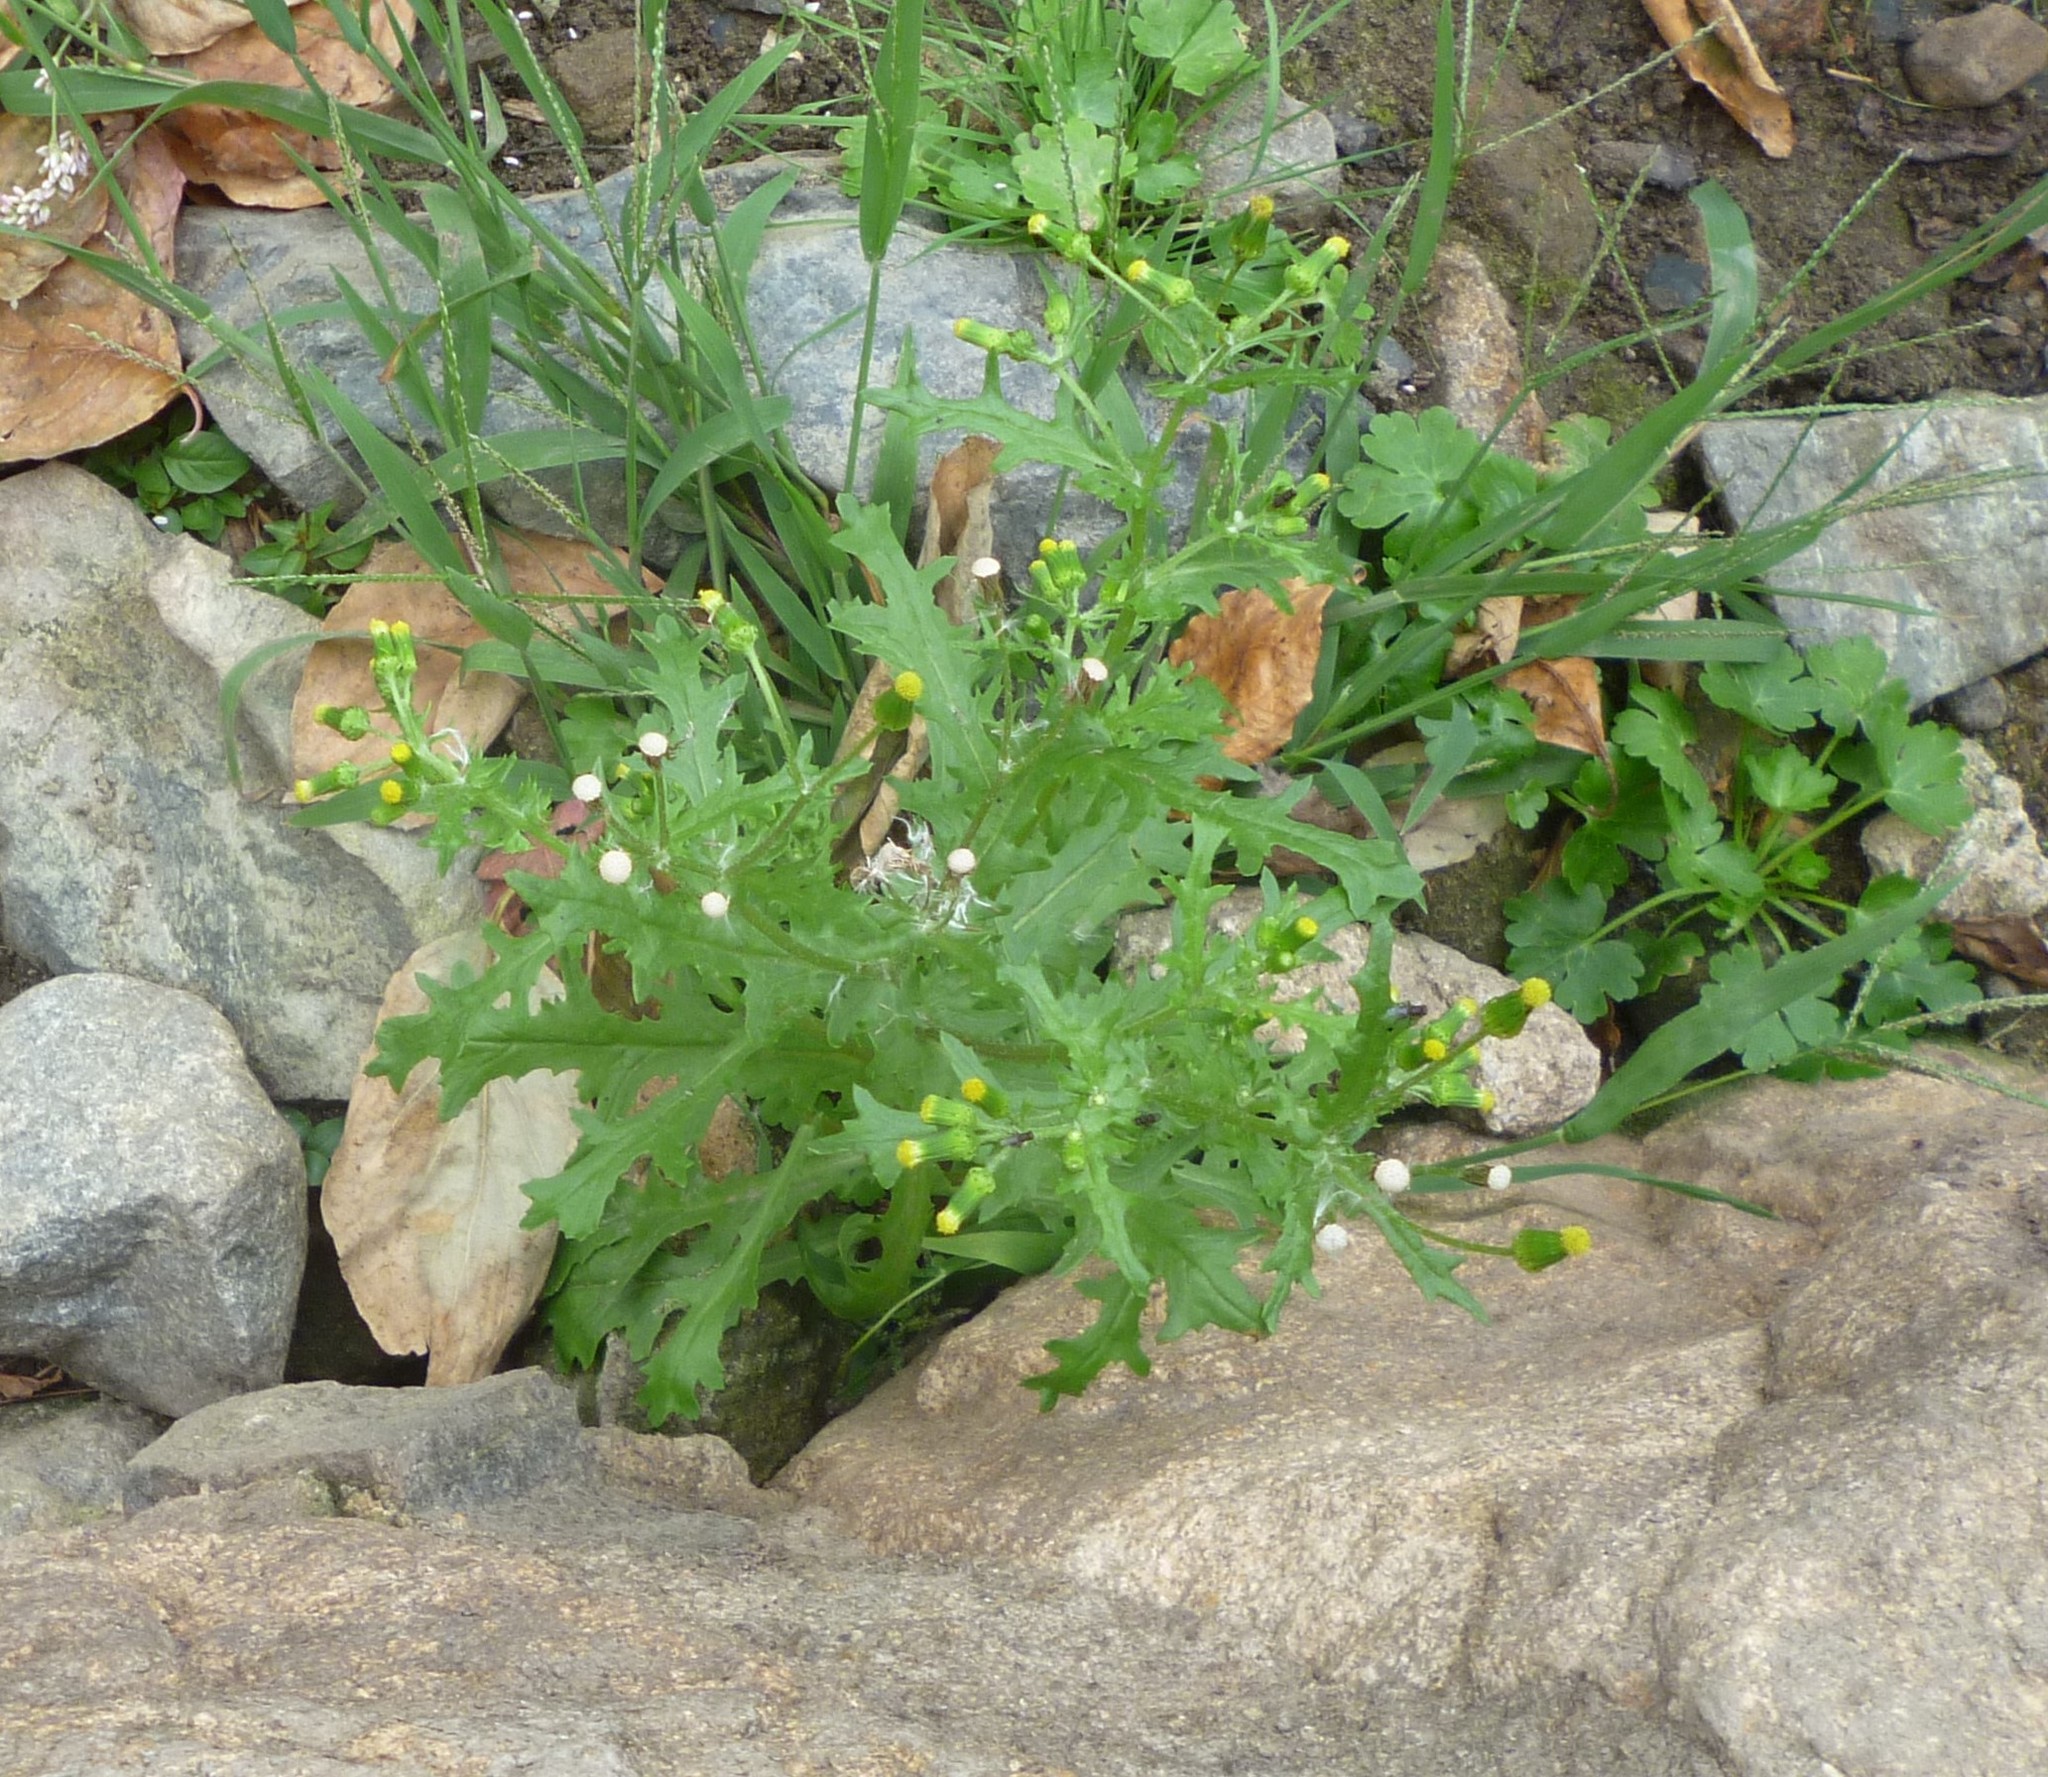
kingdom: Plantae
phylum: Tracheophyta
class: Magnoliopsida
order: Asterales
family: Asteraceae
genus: Senecio
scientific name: Senecio vulgaris
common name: Old-man-in-the-spring
